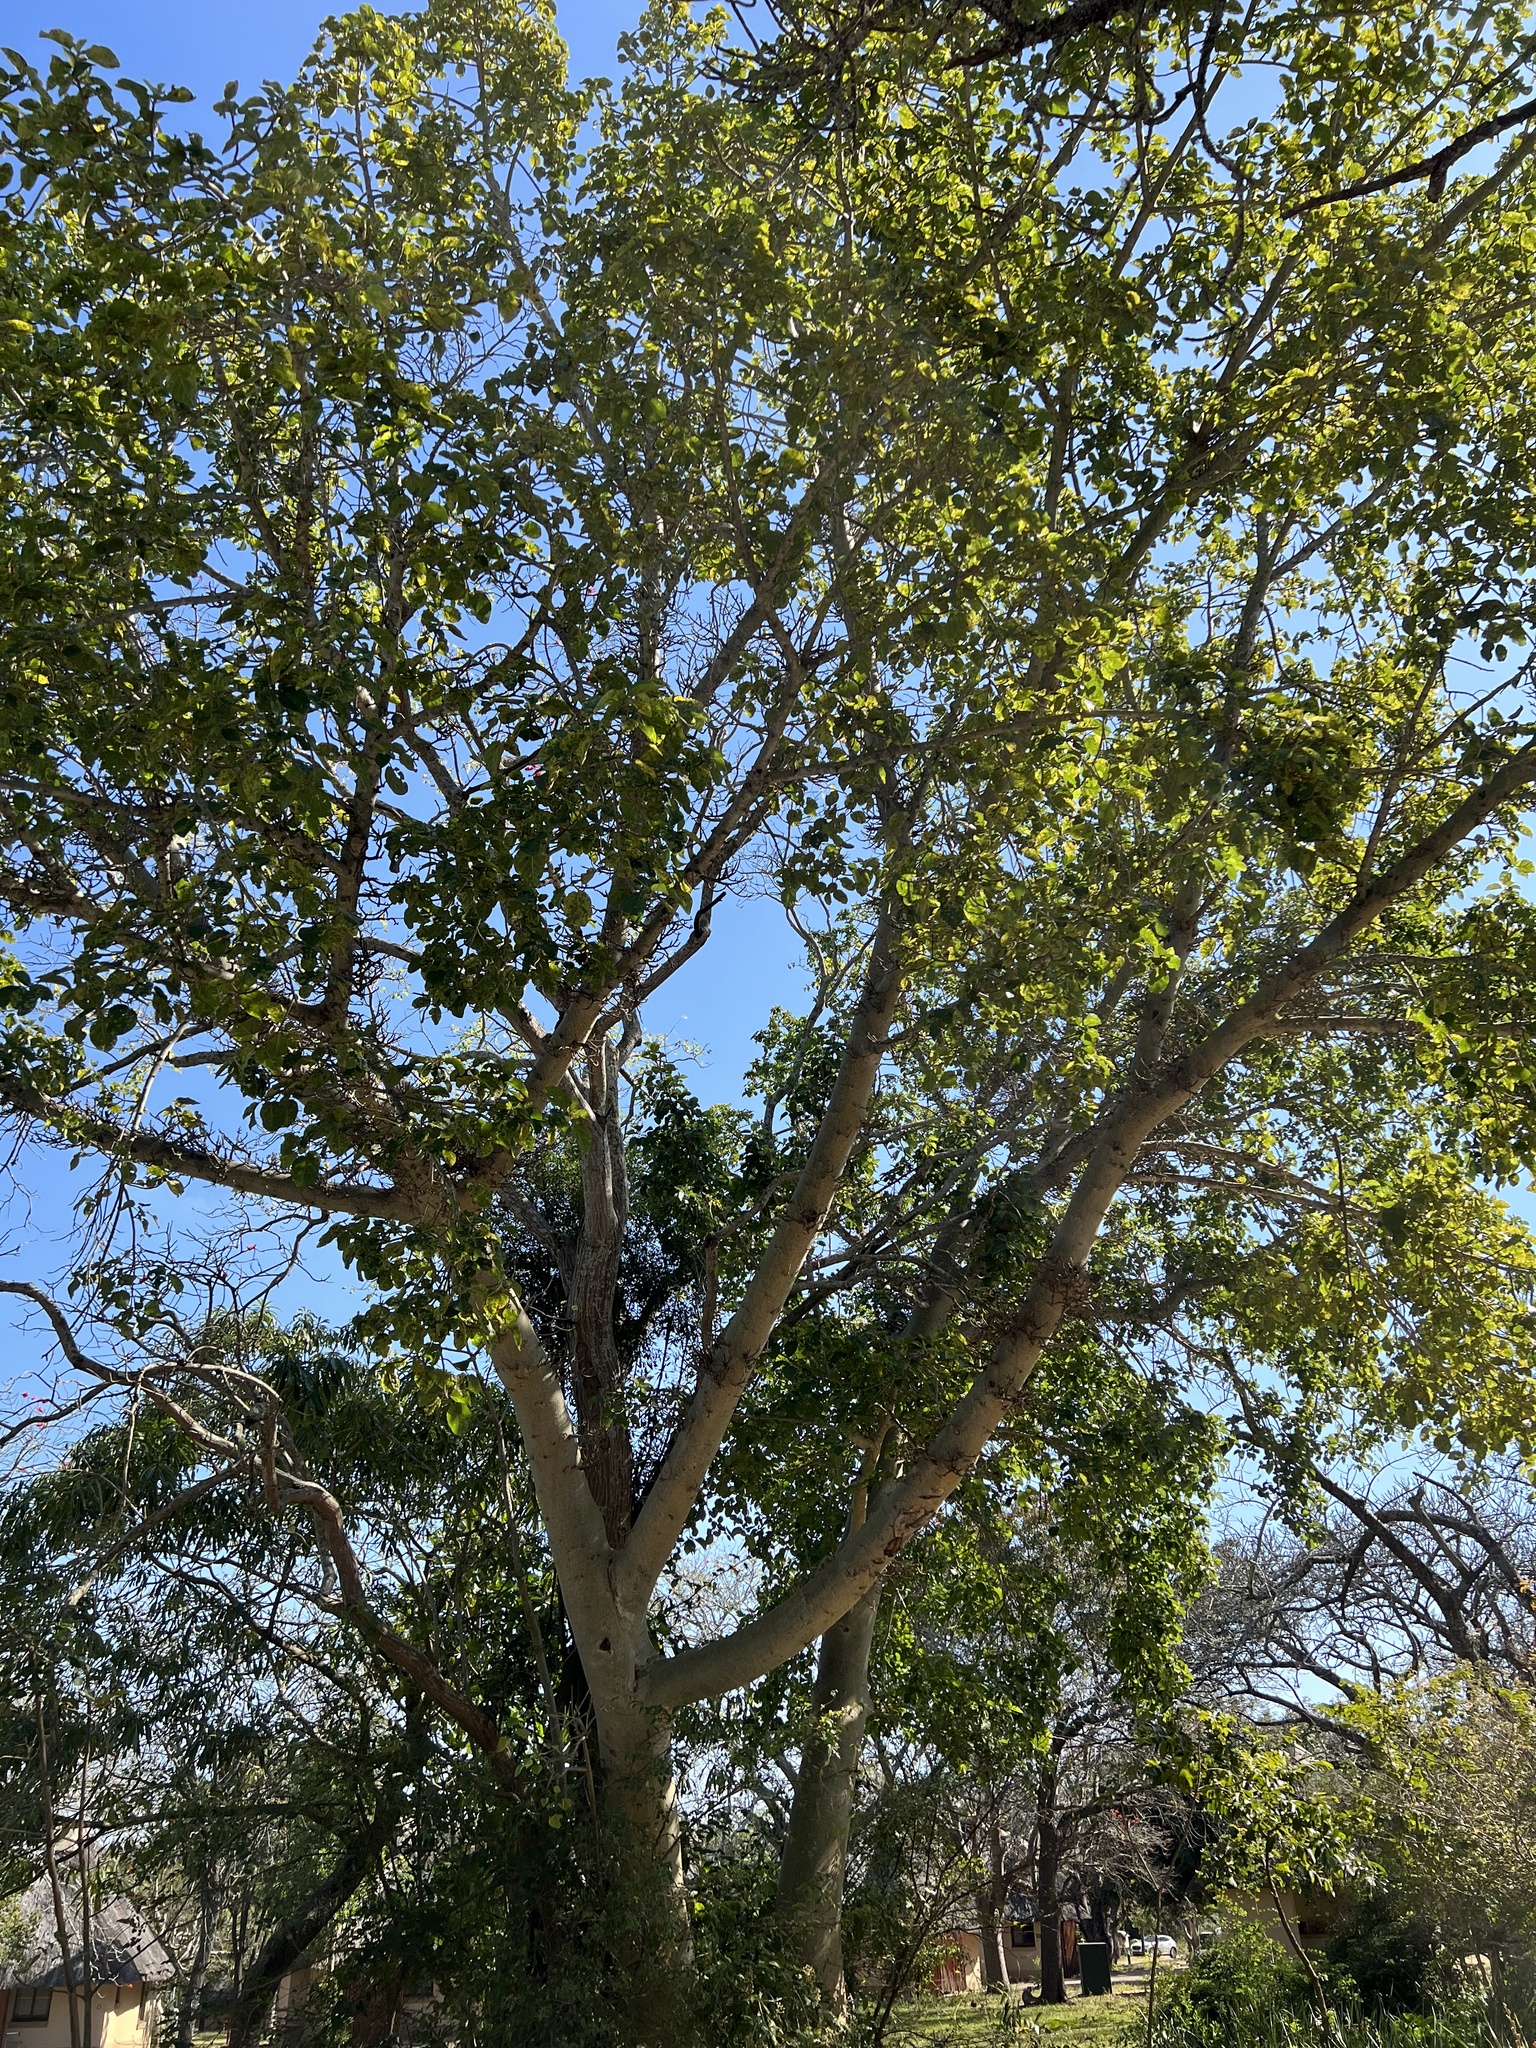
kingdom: Plantae
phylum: Tracheophyta
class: Magnoliopsida
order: Rosales
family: Moraceae
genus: Ficus
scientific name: Ficus sycomorus
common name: Sycomore
